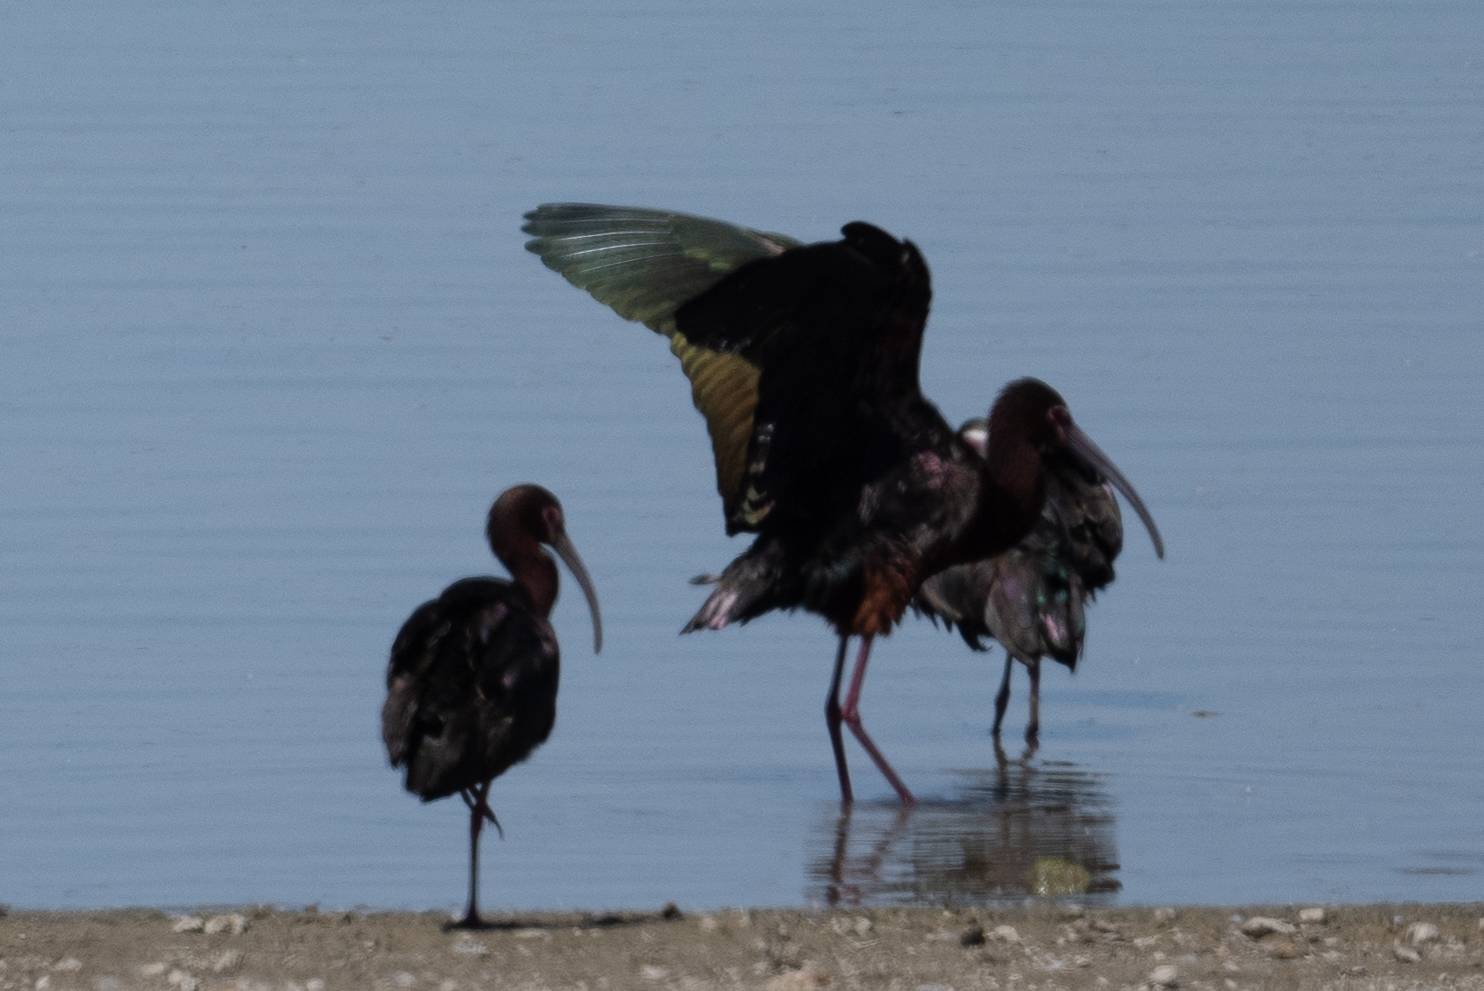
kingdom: Animalia
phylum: Chordata
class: Aves
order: Pelecaniformes
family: Threskiornithidae
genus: Plegadis
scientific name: Plegadis chihi
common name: White-faced ibis
